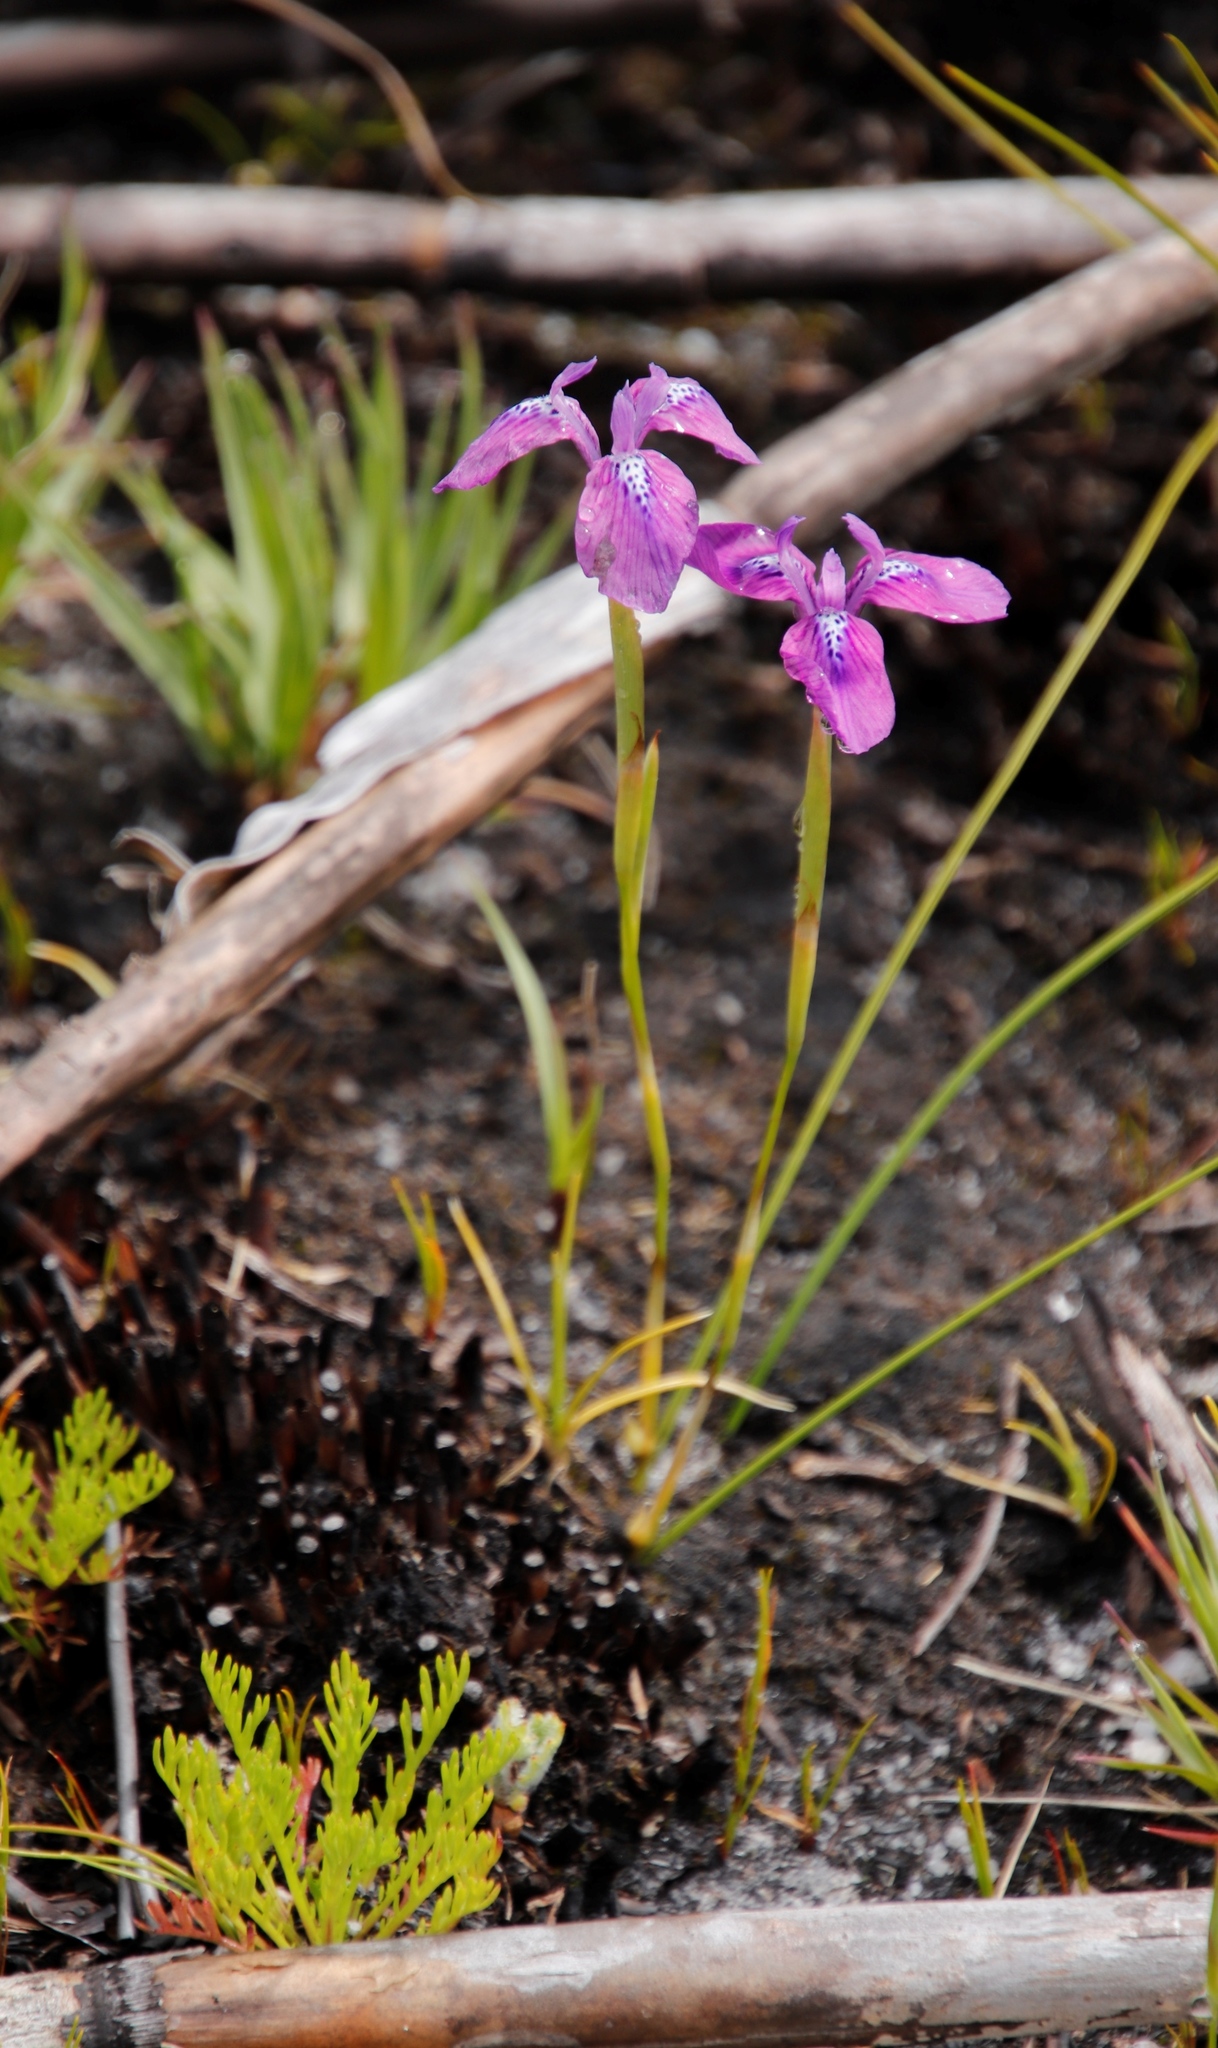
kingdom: Plantae
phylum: Tracheophyta
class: Liliopsida
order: Asparagales
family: Iridaceae
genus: Moraea
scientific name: Moraea tripetala
